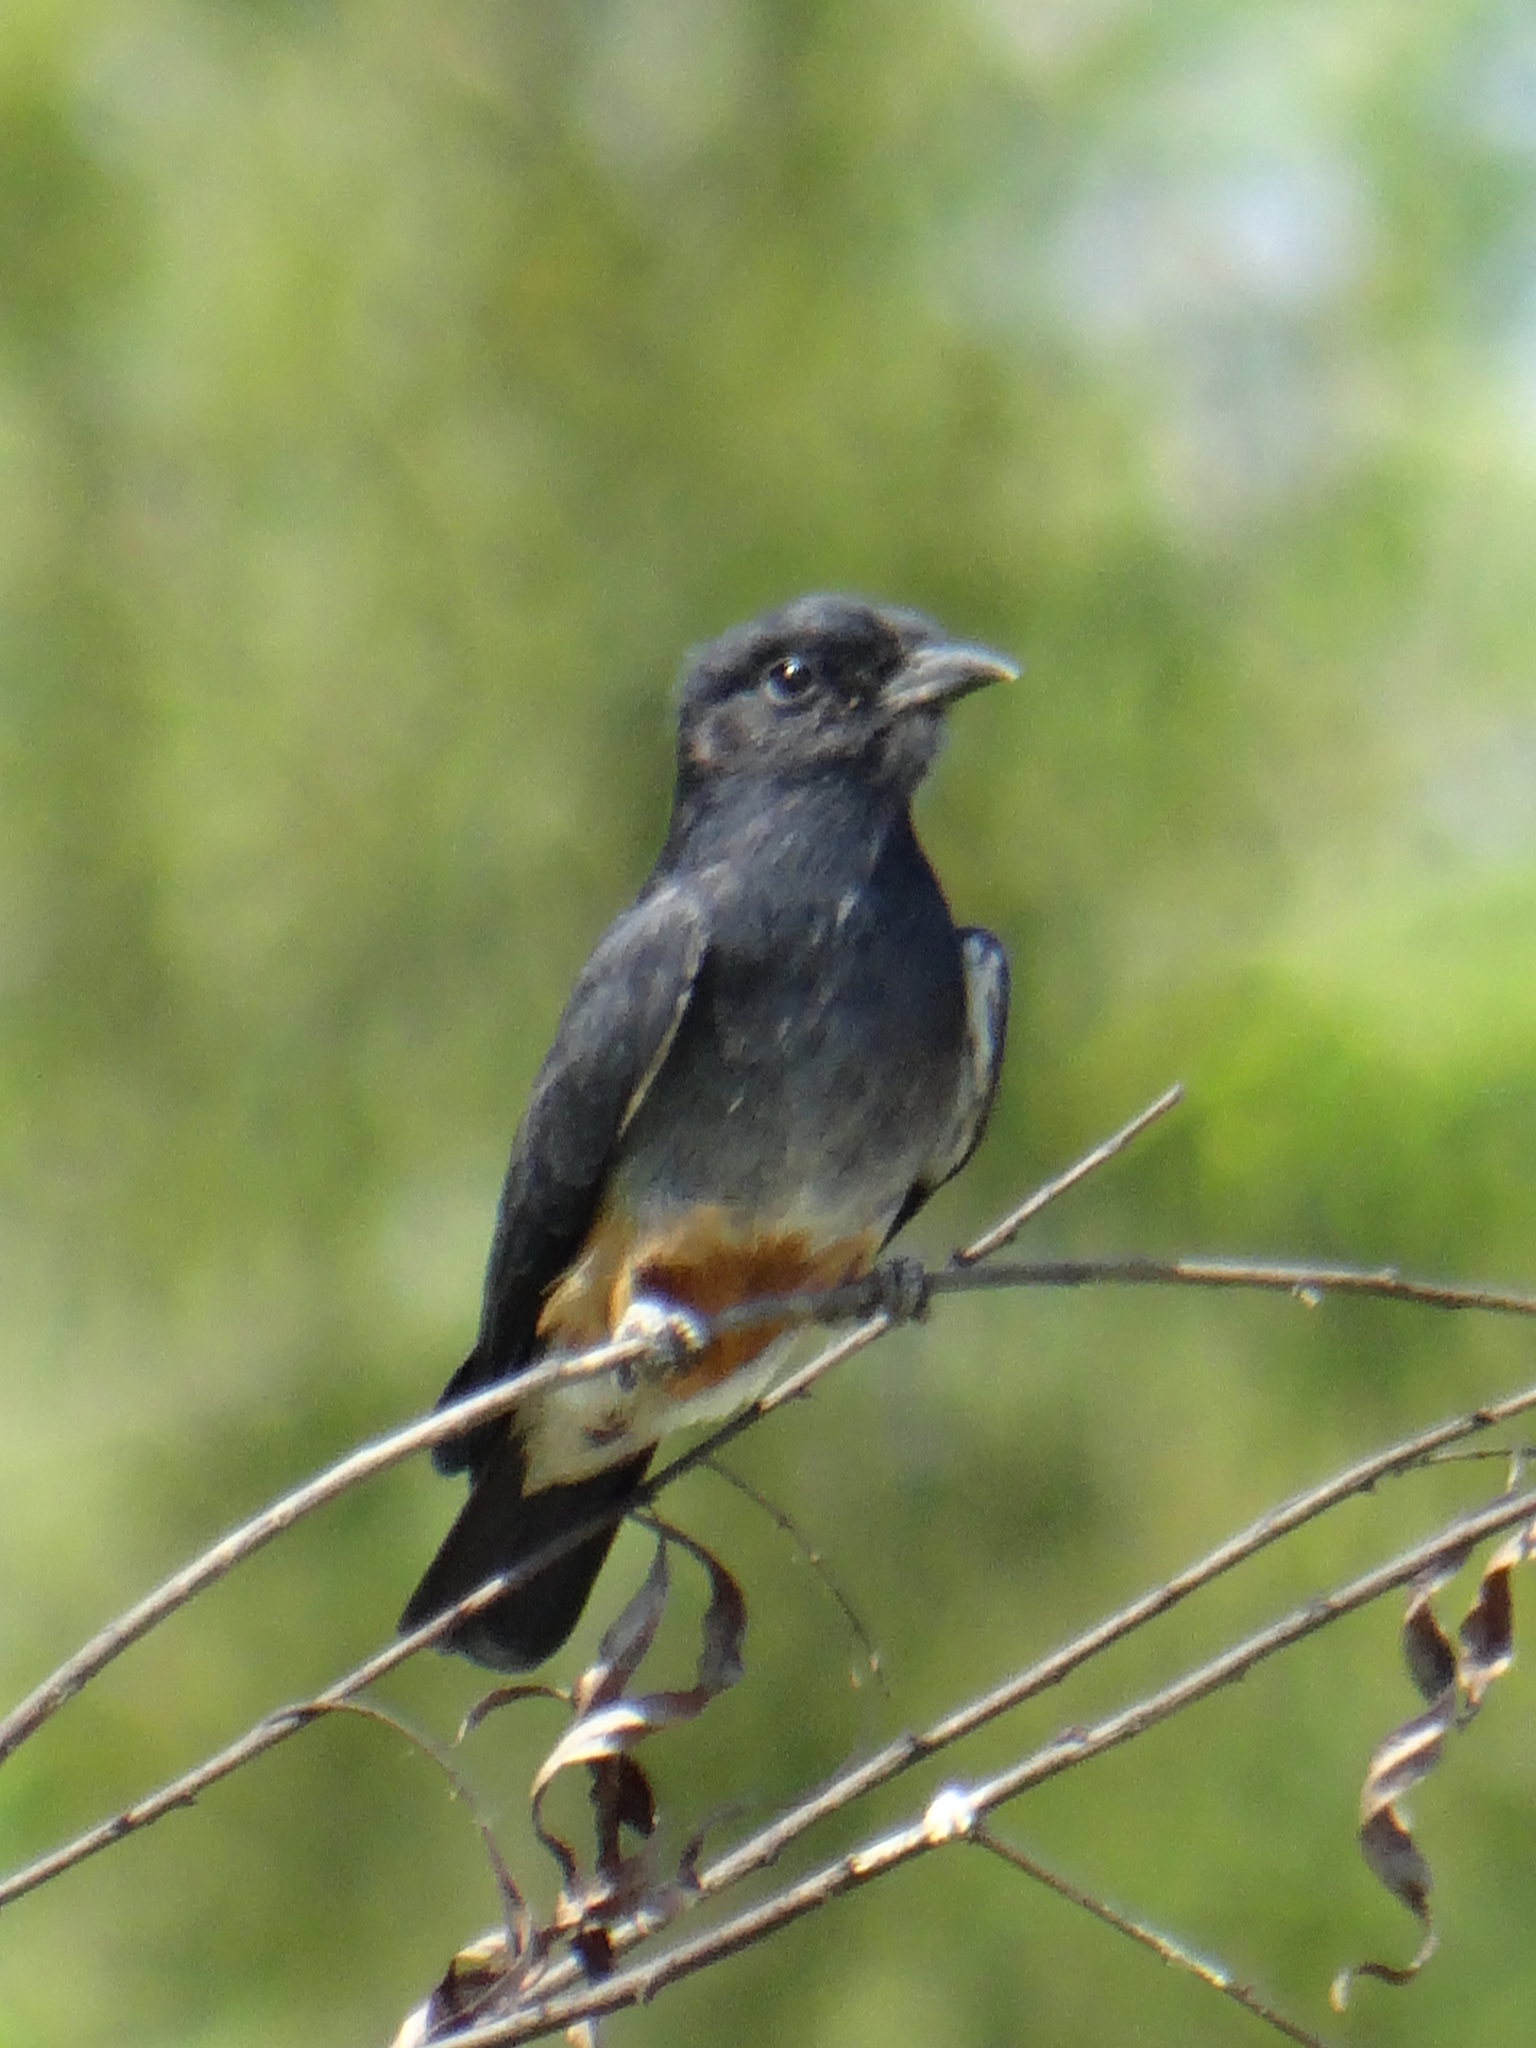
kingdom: Animalia
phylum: Chordata
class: Aves
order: Piciformes
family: Bucconidae
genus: Chelidoptera
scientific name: Chelidoptera tenebrosa
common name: Swallow-winged puffbird
